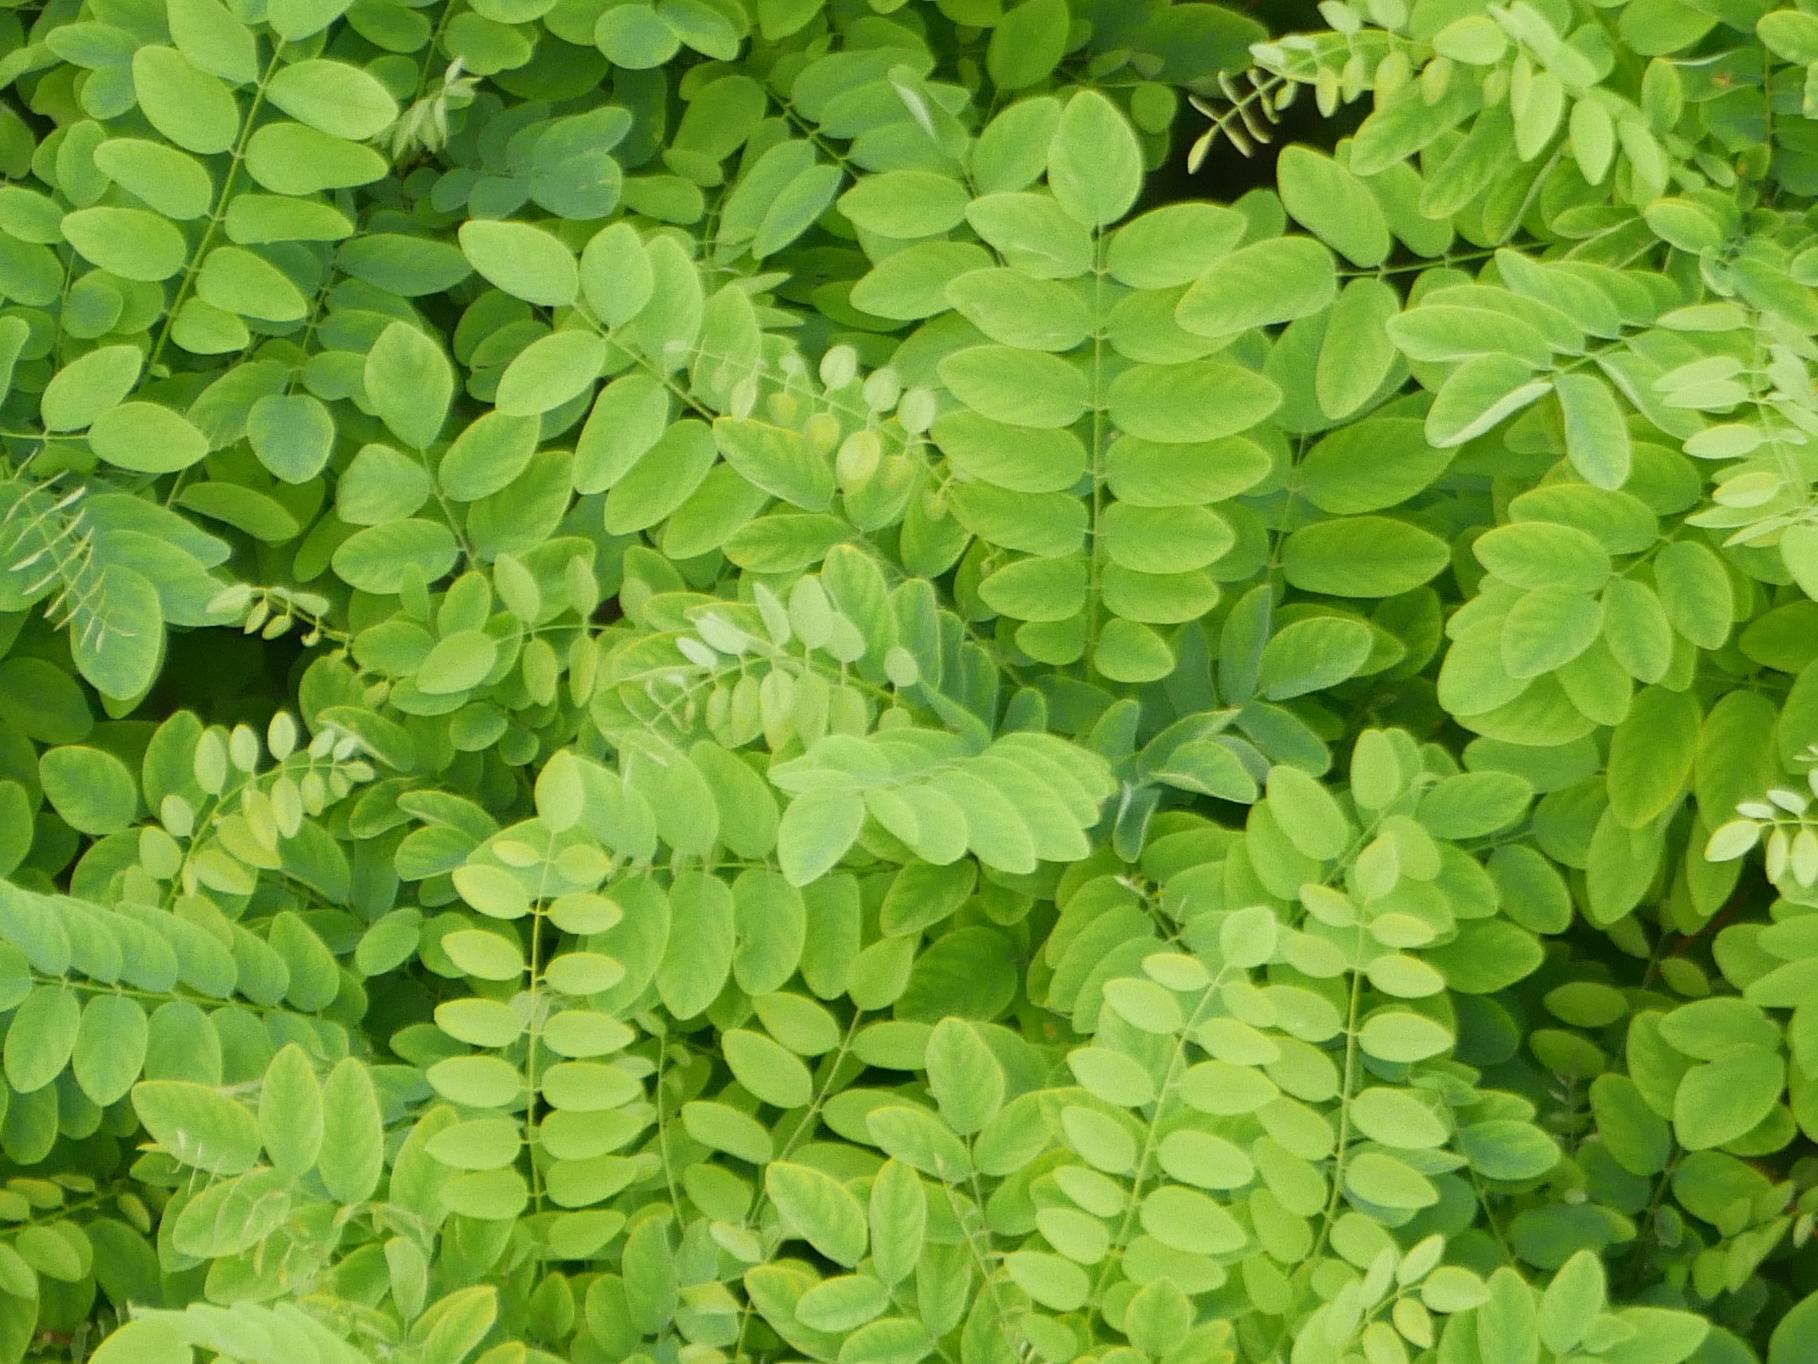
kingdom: Plantae
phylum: Tracheophyta
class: Magnoliopsida
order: Fabales
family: Fabaceae
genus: Robinia
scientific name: Robinia pseudoacacia
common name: Black locust
